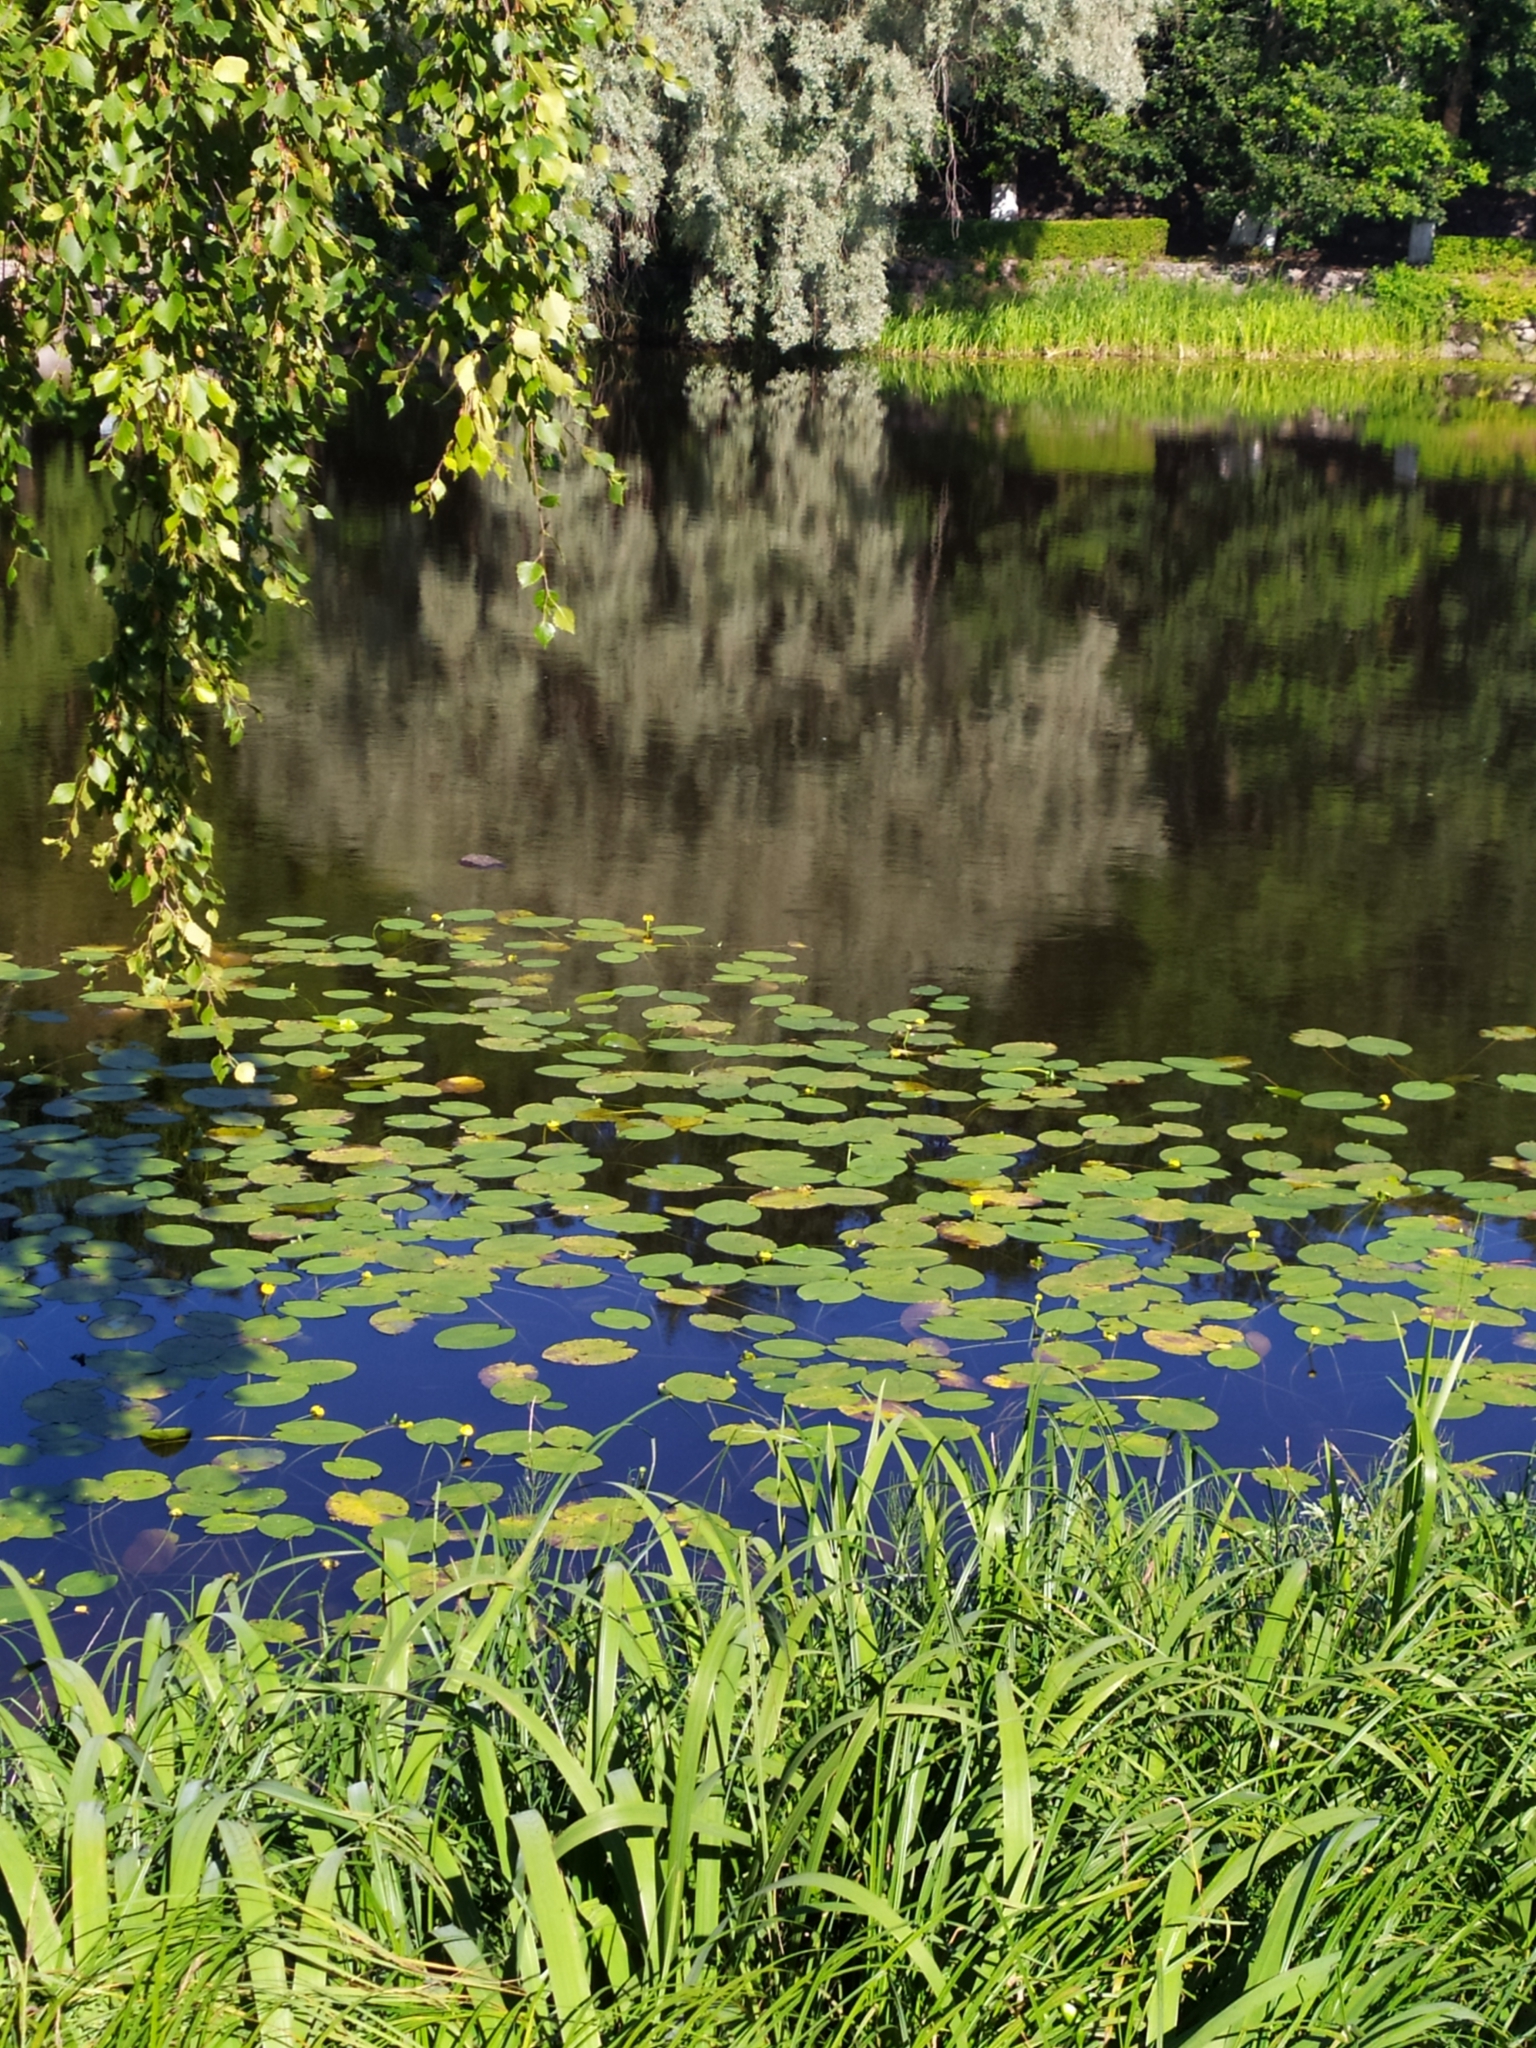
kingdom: Plantae
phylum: Tracheophyta
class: Magnoliopsida
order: Nymphaeales
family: Nymphaeaceae
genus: Nuphar
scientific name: Nuphar lutea
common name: Yellow water-lily
